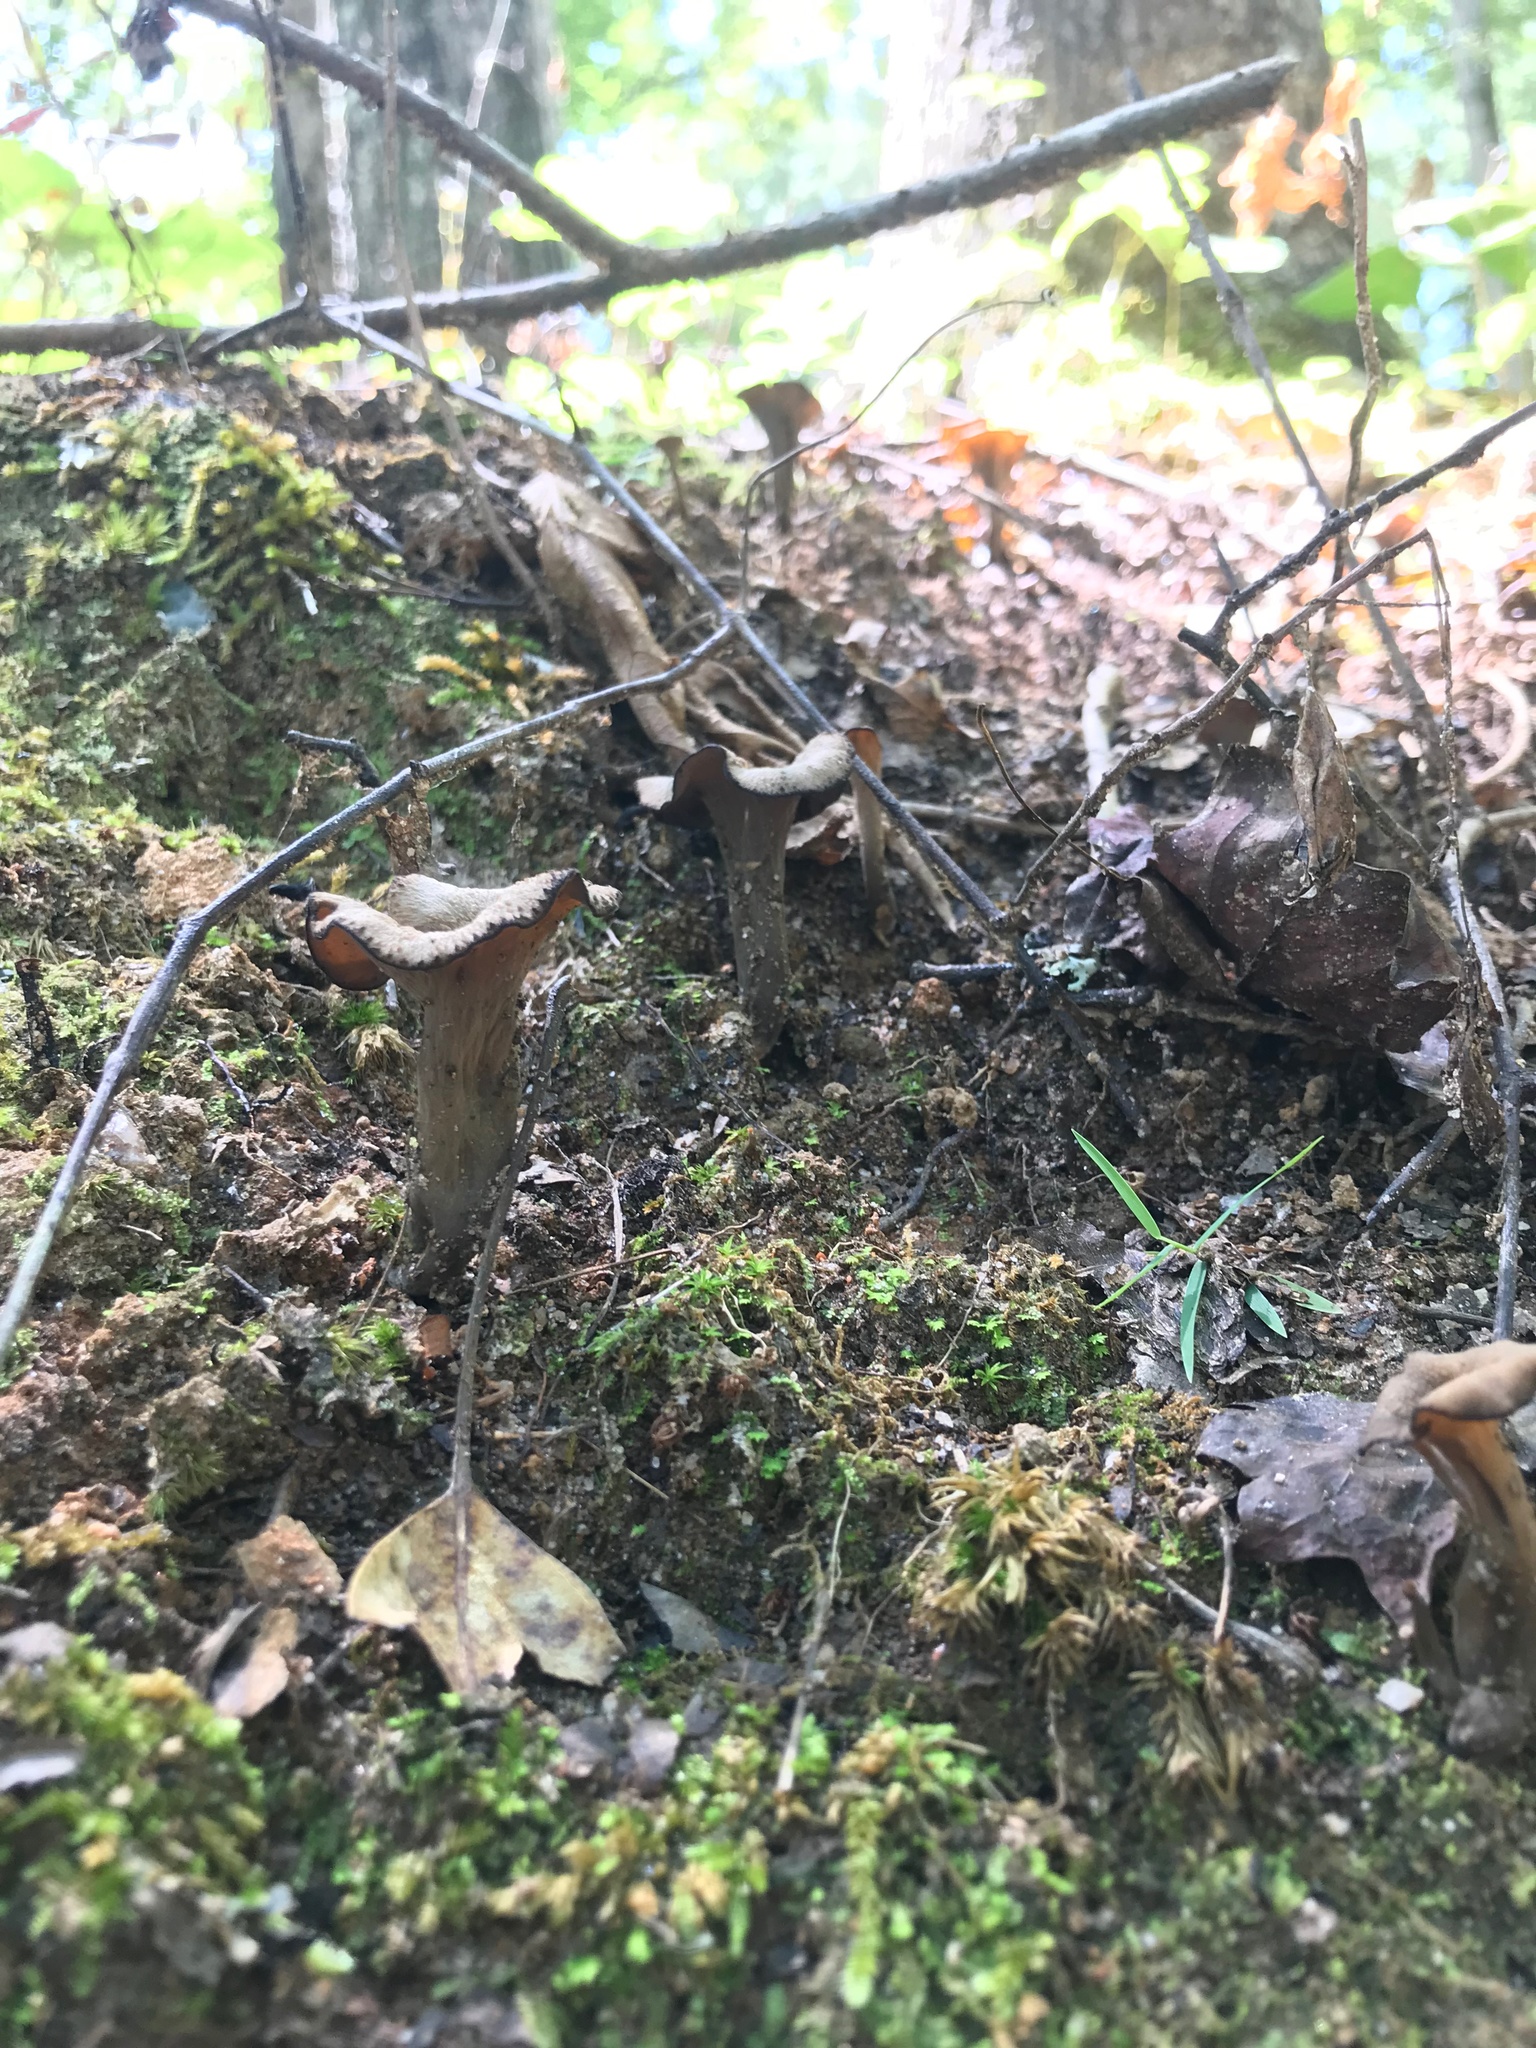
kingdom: Fungi
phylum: Basidiomycota
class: Agaricomycetes
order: Cantharellales
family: Hydnaceae
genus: Craterellus
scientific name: Craterellus cornucopioides
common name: Horn of plenty
